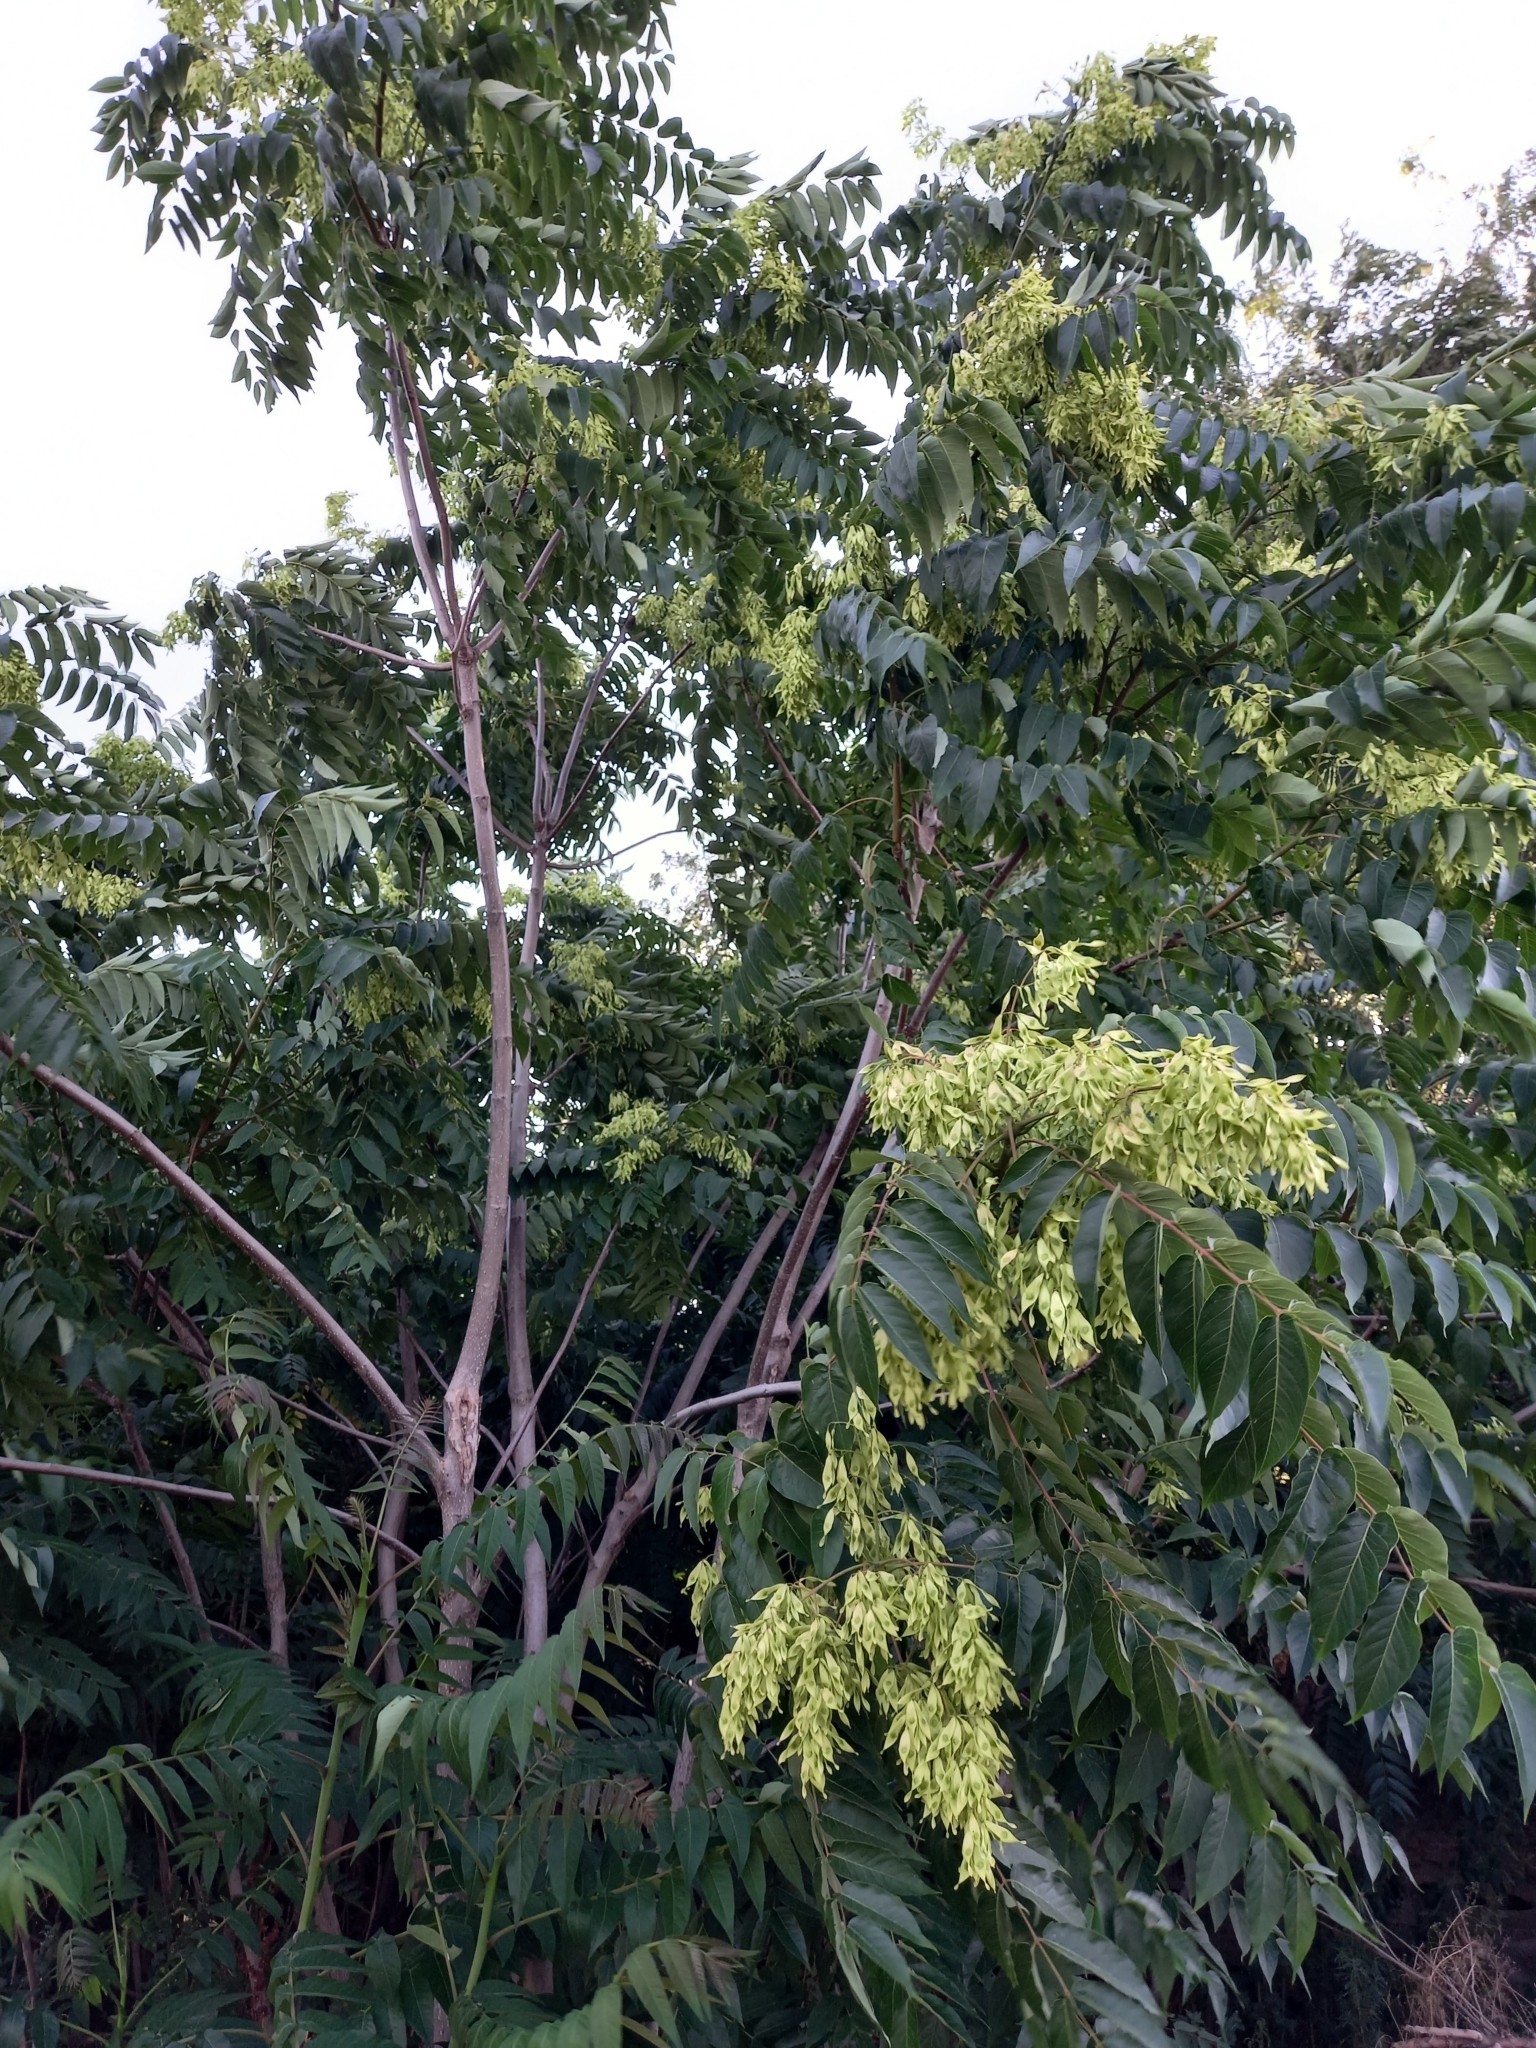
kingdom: Plantae
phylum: Tracheophyta
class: Magnoliopsida
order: Sapindales
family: Simaroubaceae
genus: Ailanthus
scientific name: Ailanthus altissima
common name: Tree-of-heaven
